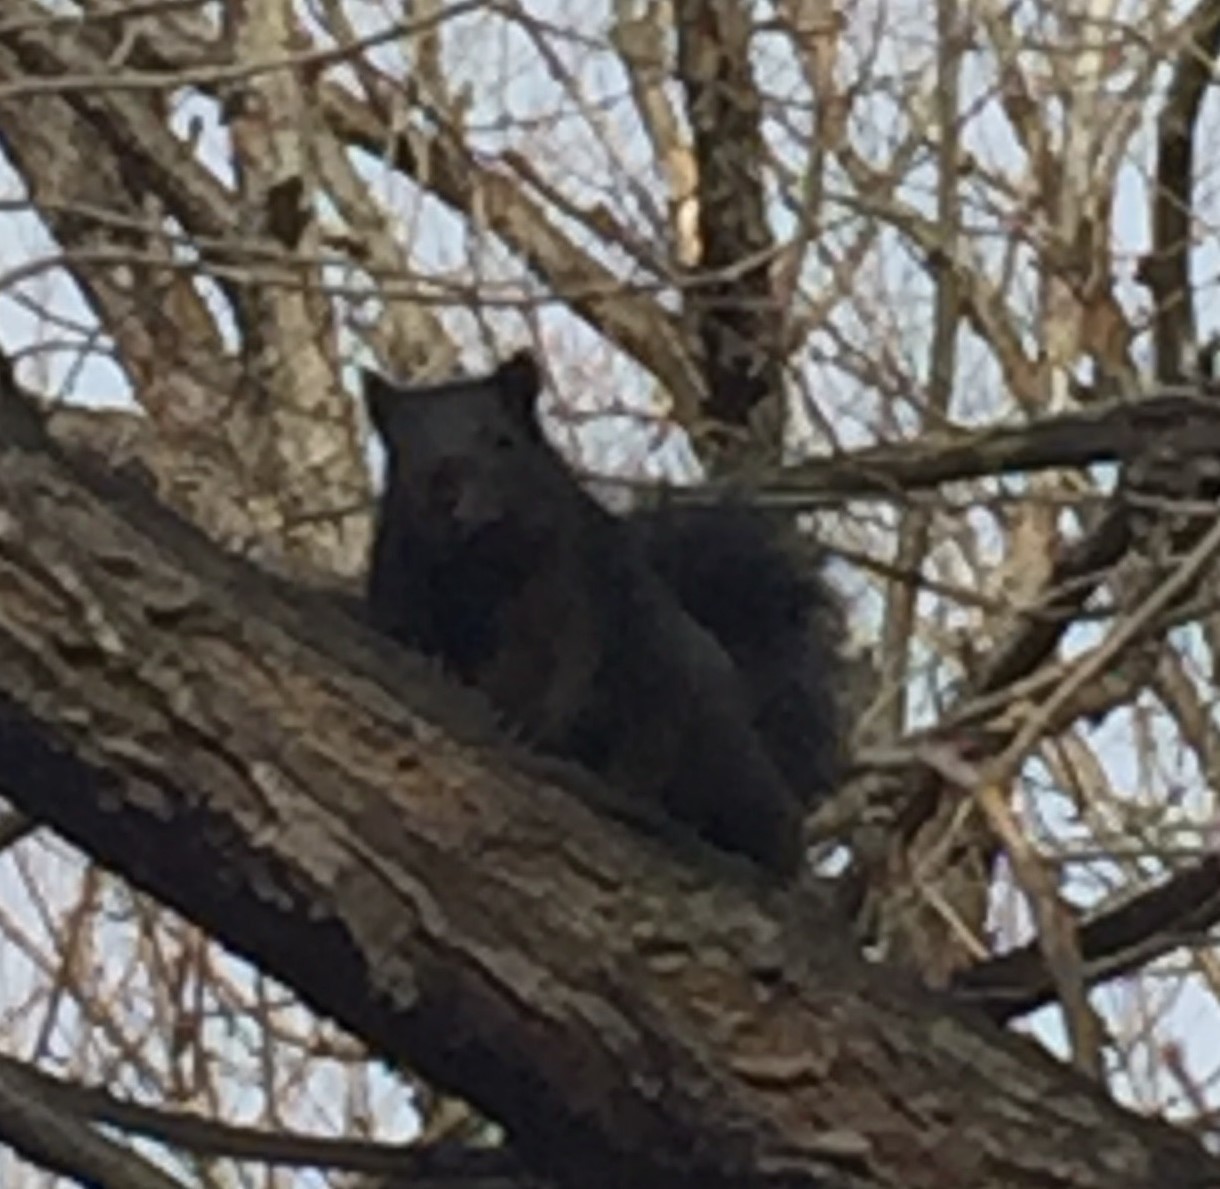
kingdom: Animalia
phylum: Chordata
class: Mammalia
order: Rodentia
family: Sciuridae
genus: Sciurus
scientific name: Sciurus niger
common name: Fox squirrel
